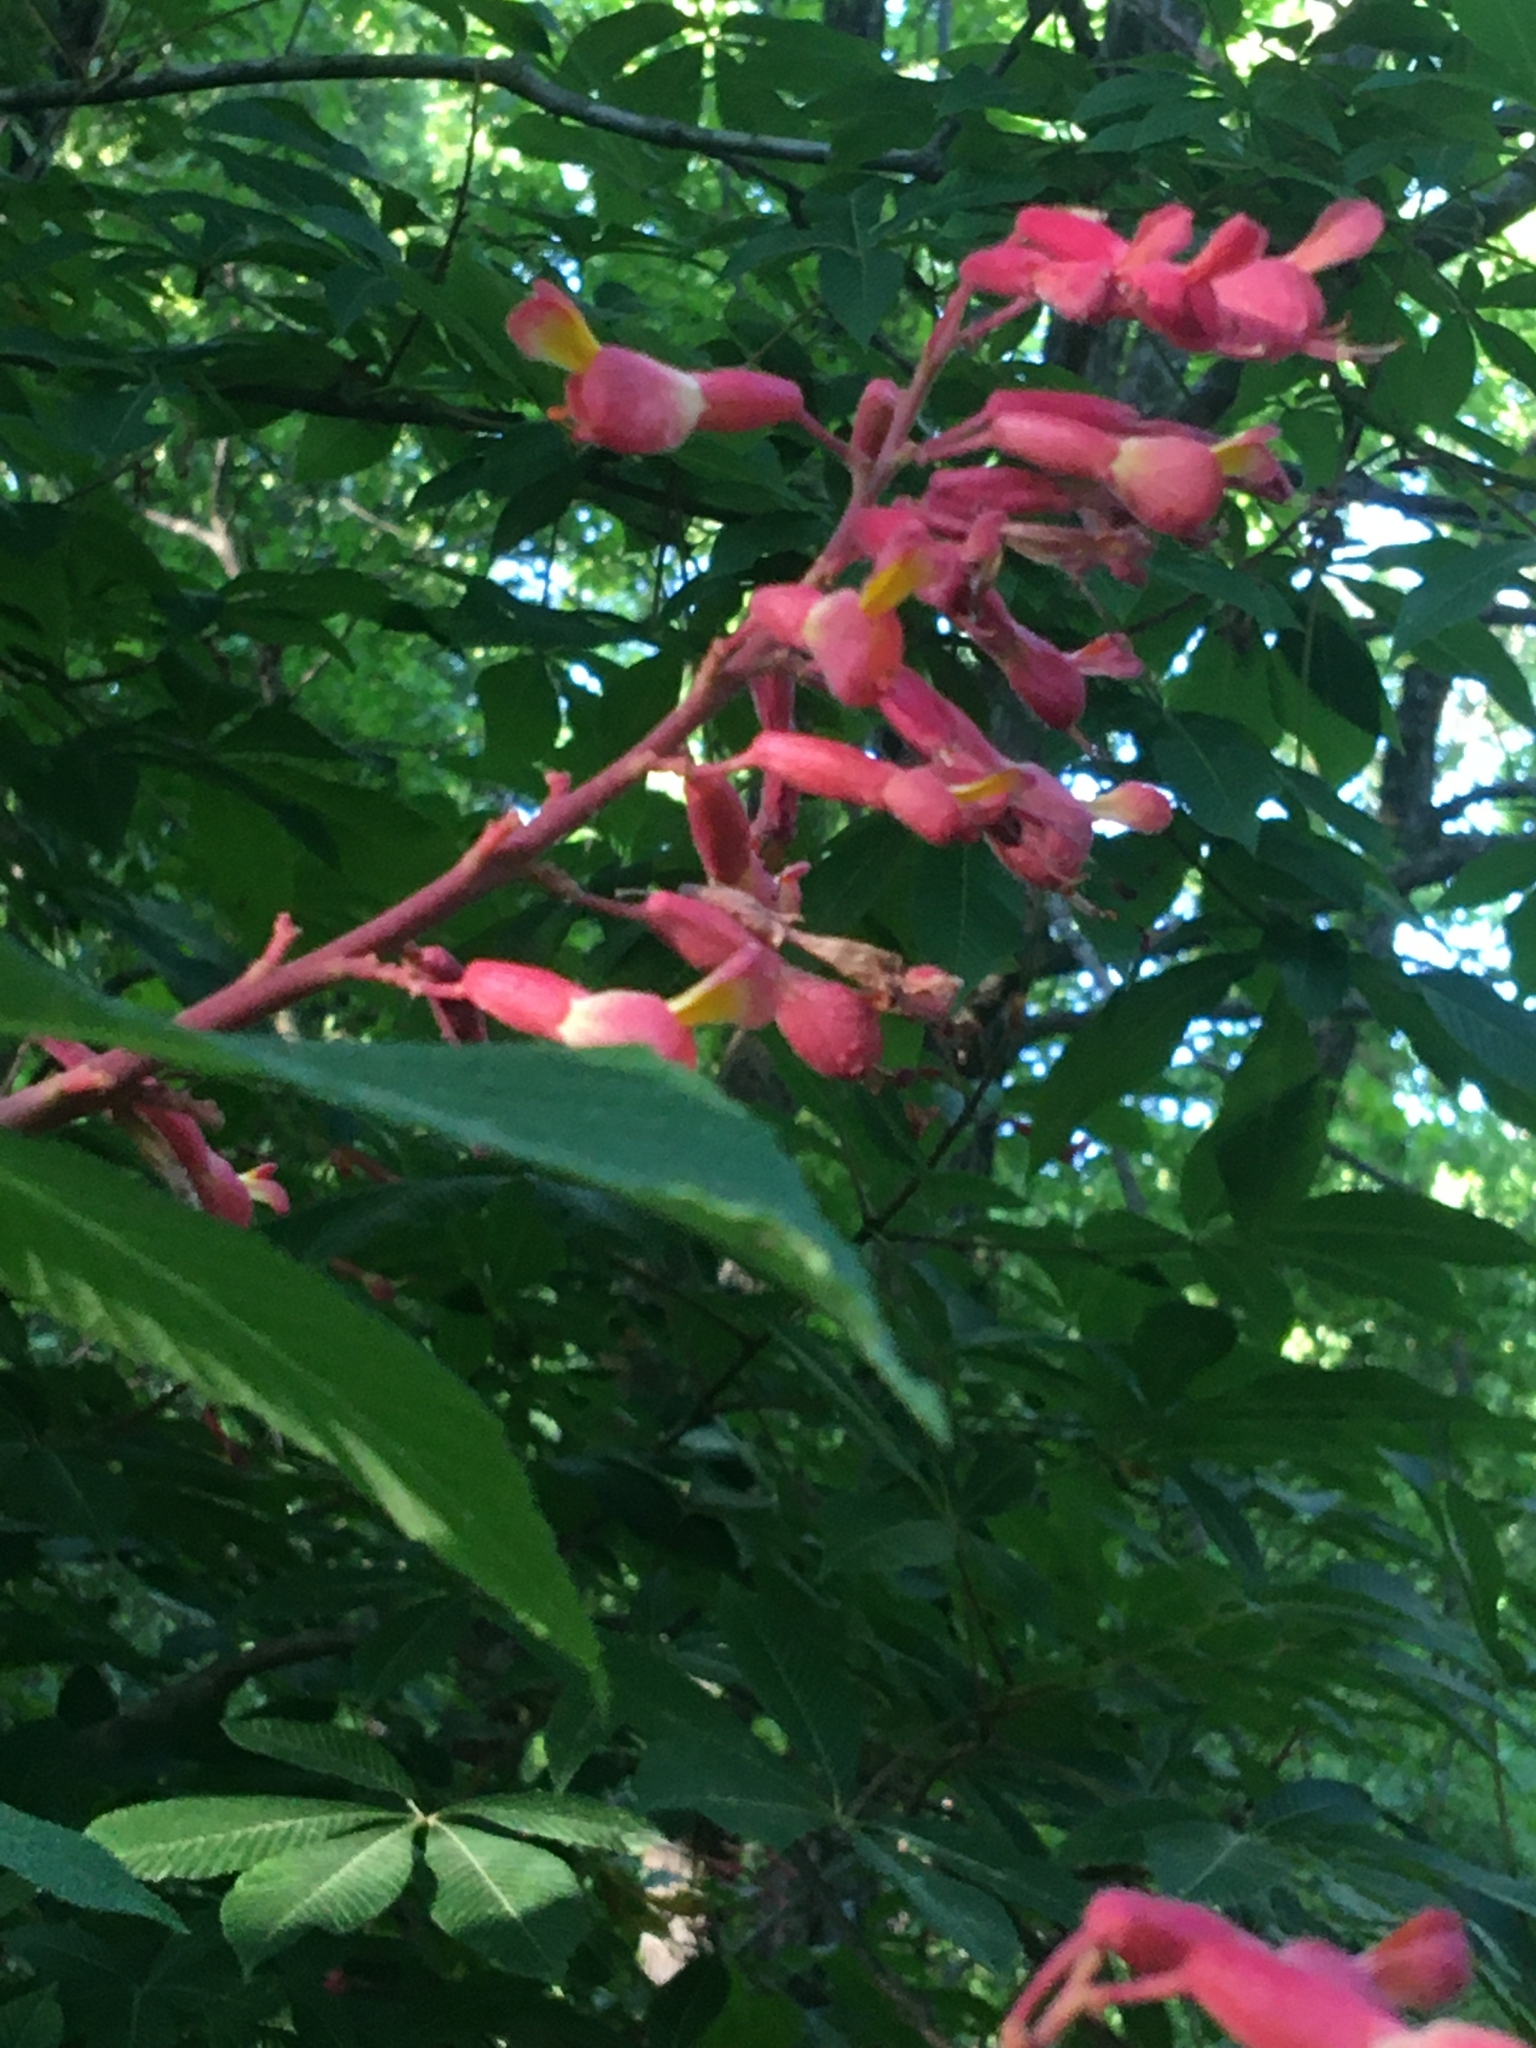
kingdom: Plantae
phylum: Tracheophyta
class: Magnoliopsida
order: Sapindales
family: Sapindaceae
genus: Aesculus
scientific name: Aesculus pavia
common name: Red buckeye
